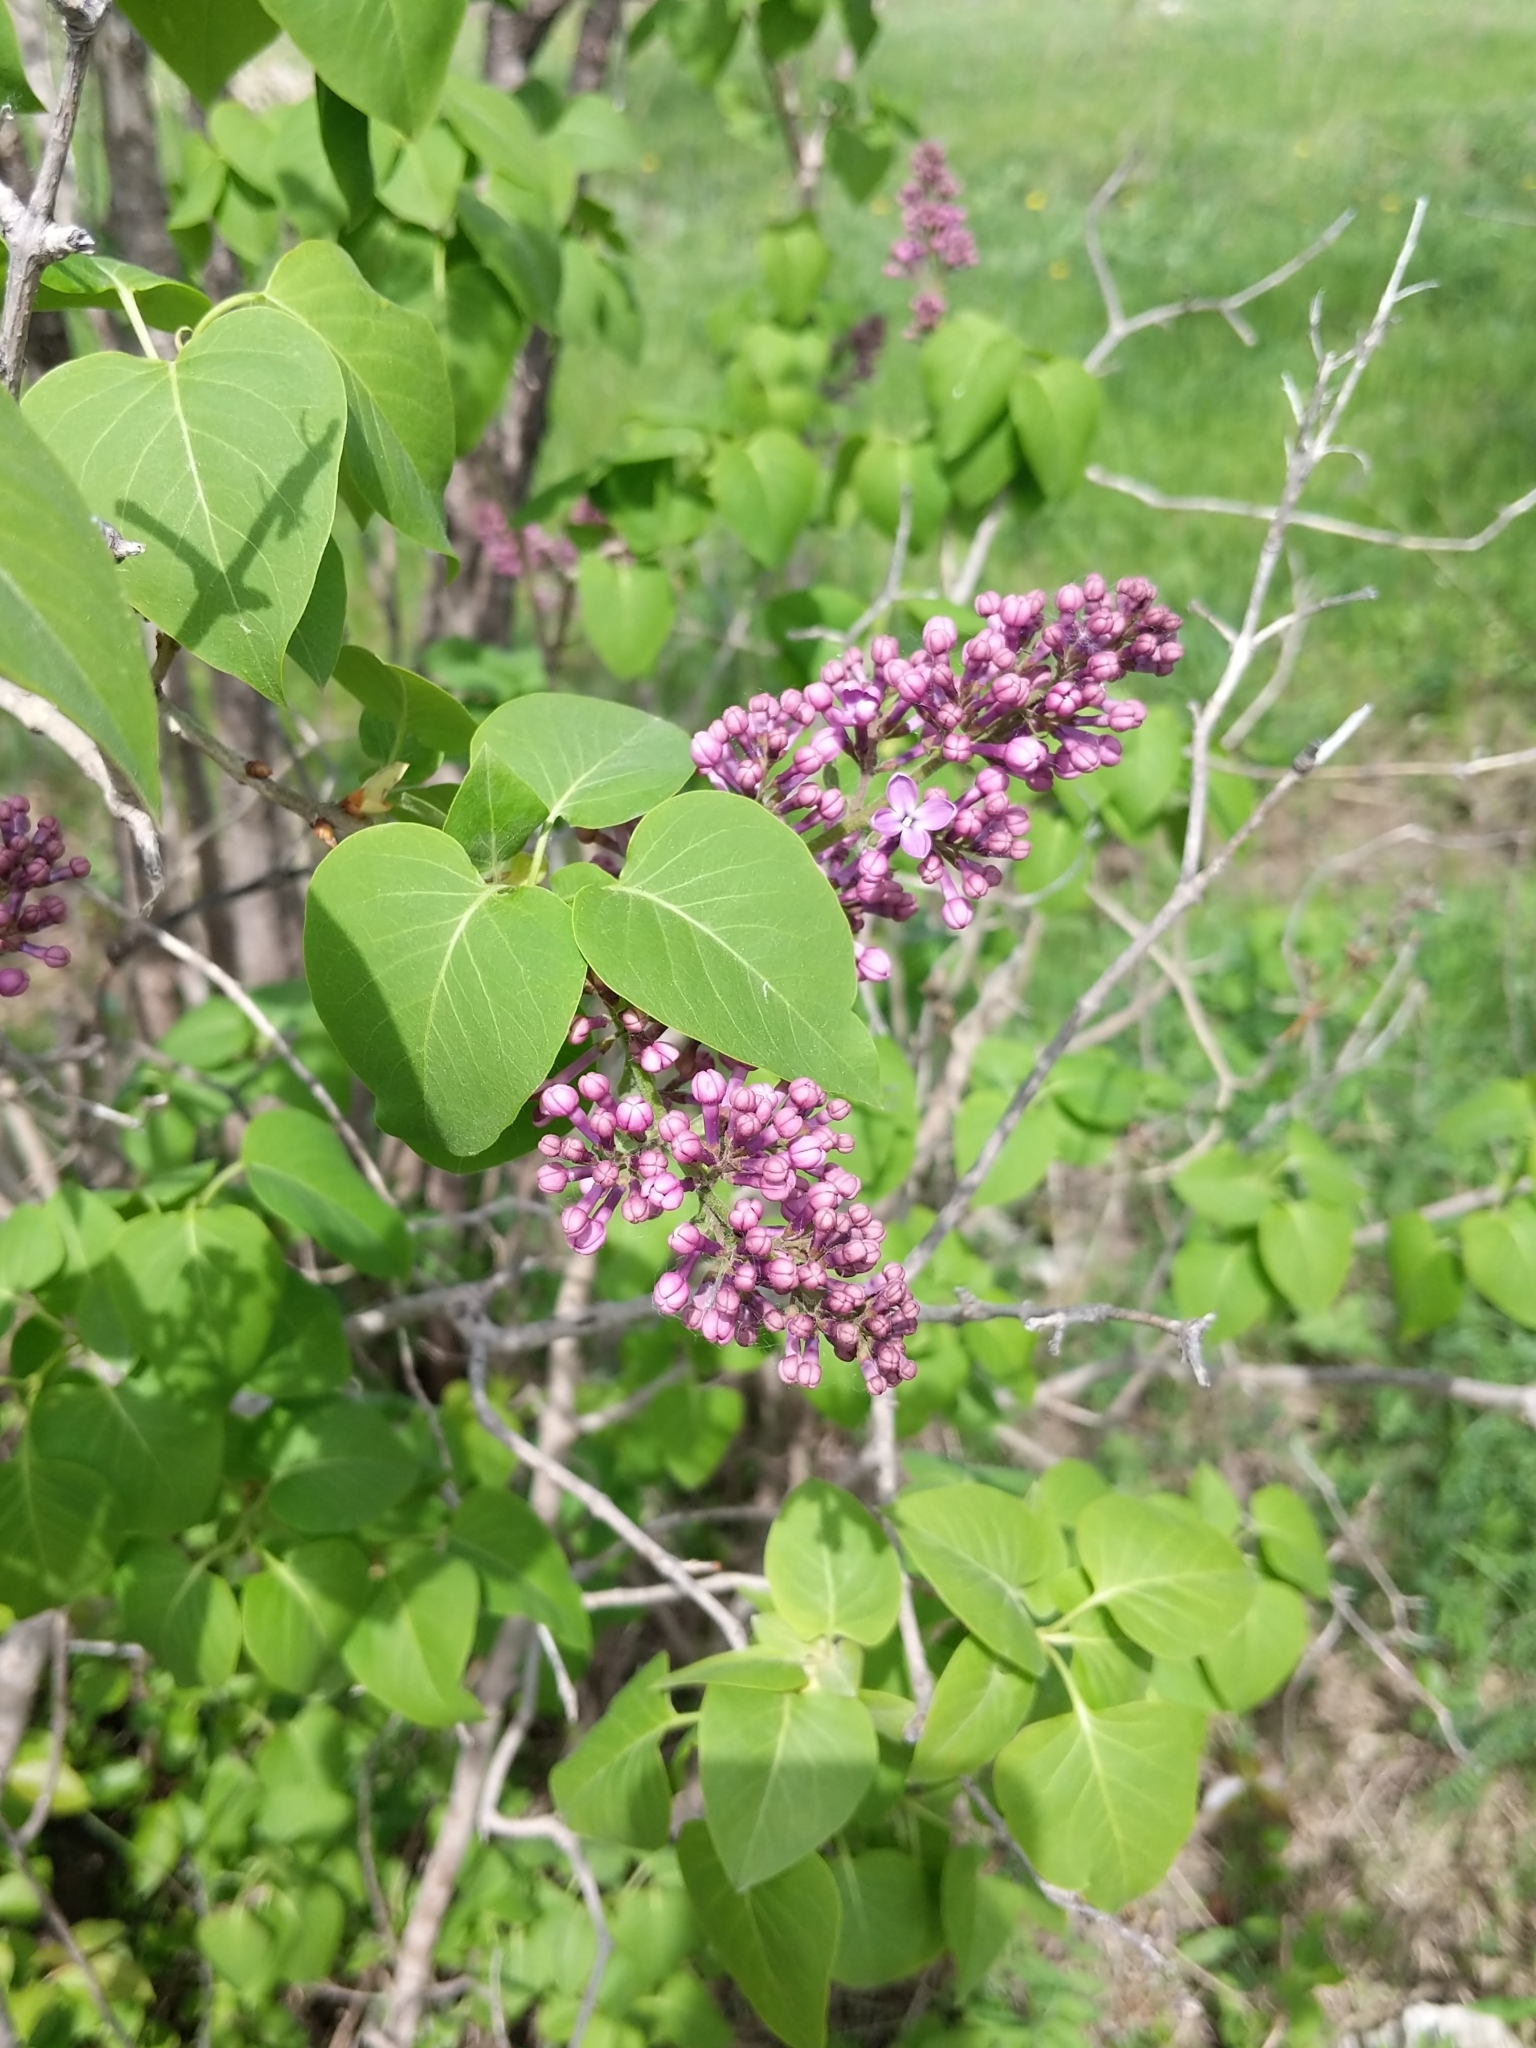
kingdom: Plantae
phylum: Tracheophyta
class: Magnoliopsida
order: Lamiales
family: Oleaceae
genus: Syringa
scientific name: Syringa vulgaris
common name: Common lilac
